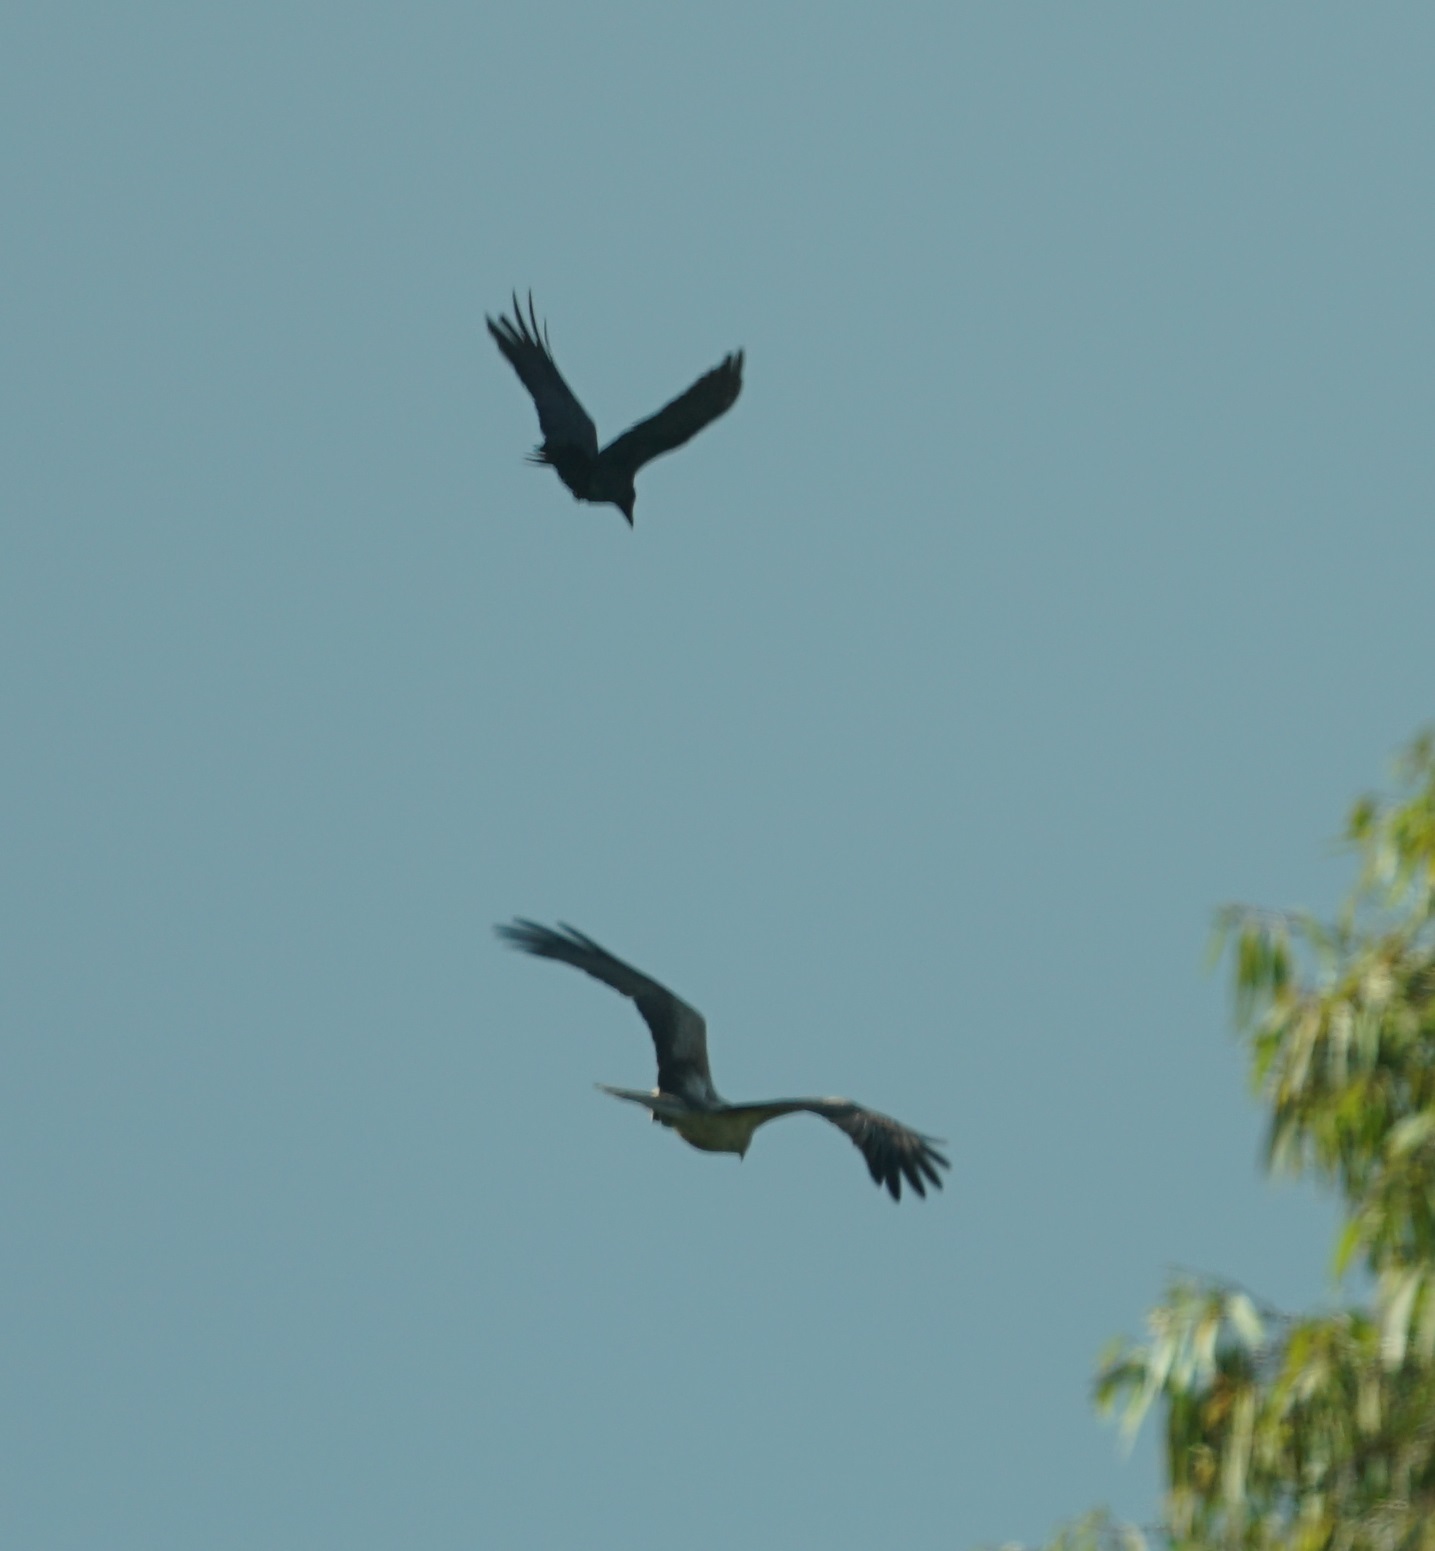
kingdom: Animalia
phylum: Chordata
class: Aves
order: Accipitriformes
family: Accipitridae
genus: Haliastur
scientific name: Haliastur sphenurus
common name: Whistling kite
